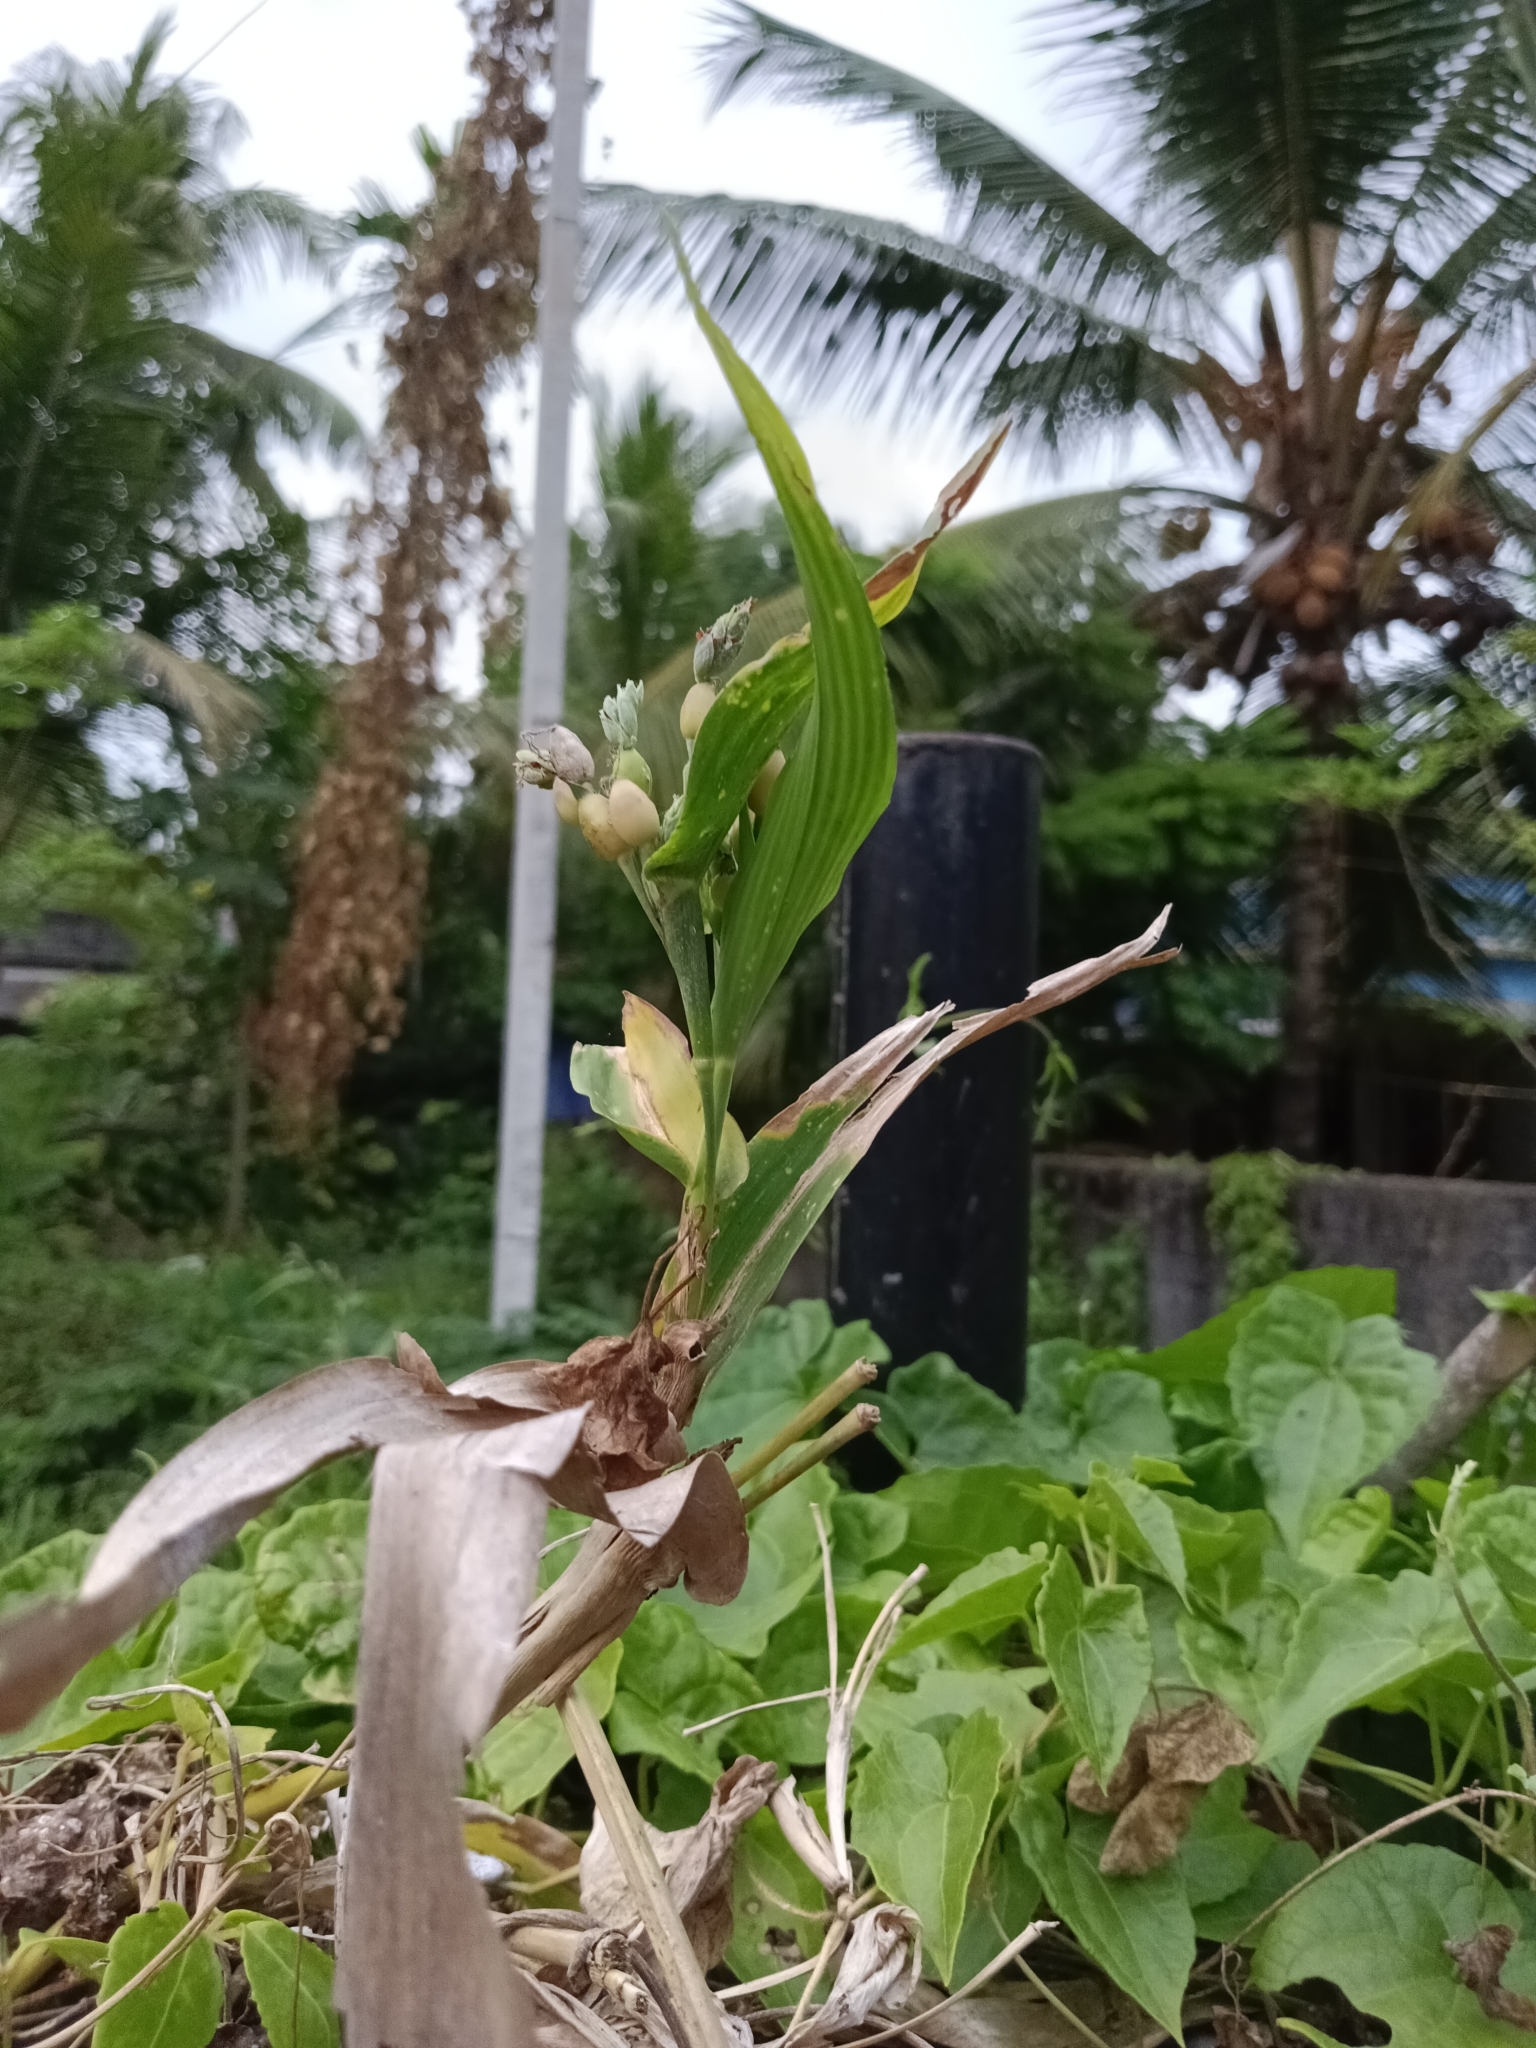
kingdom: Plantae
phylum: Tracheophyta
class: Liliopsida
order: Poales
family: Poaceae
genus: Coix
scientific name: Coix lacryma-jobi
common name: Job's tears
